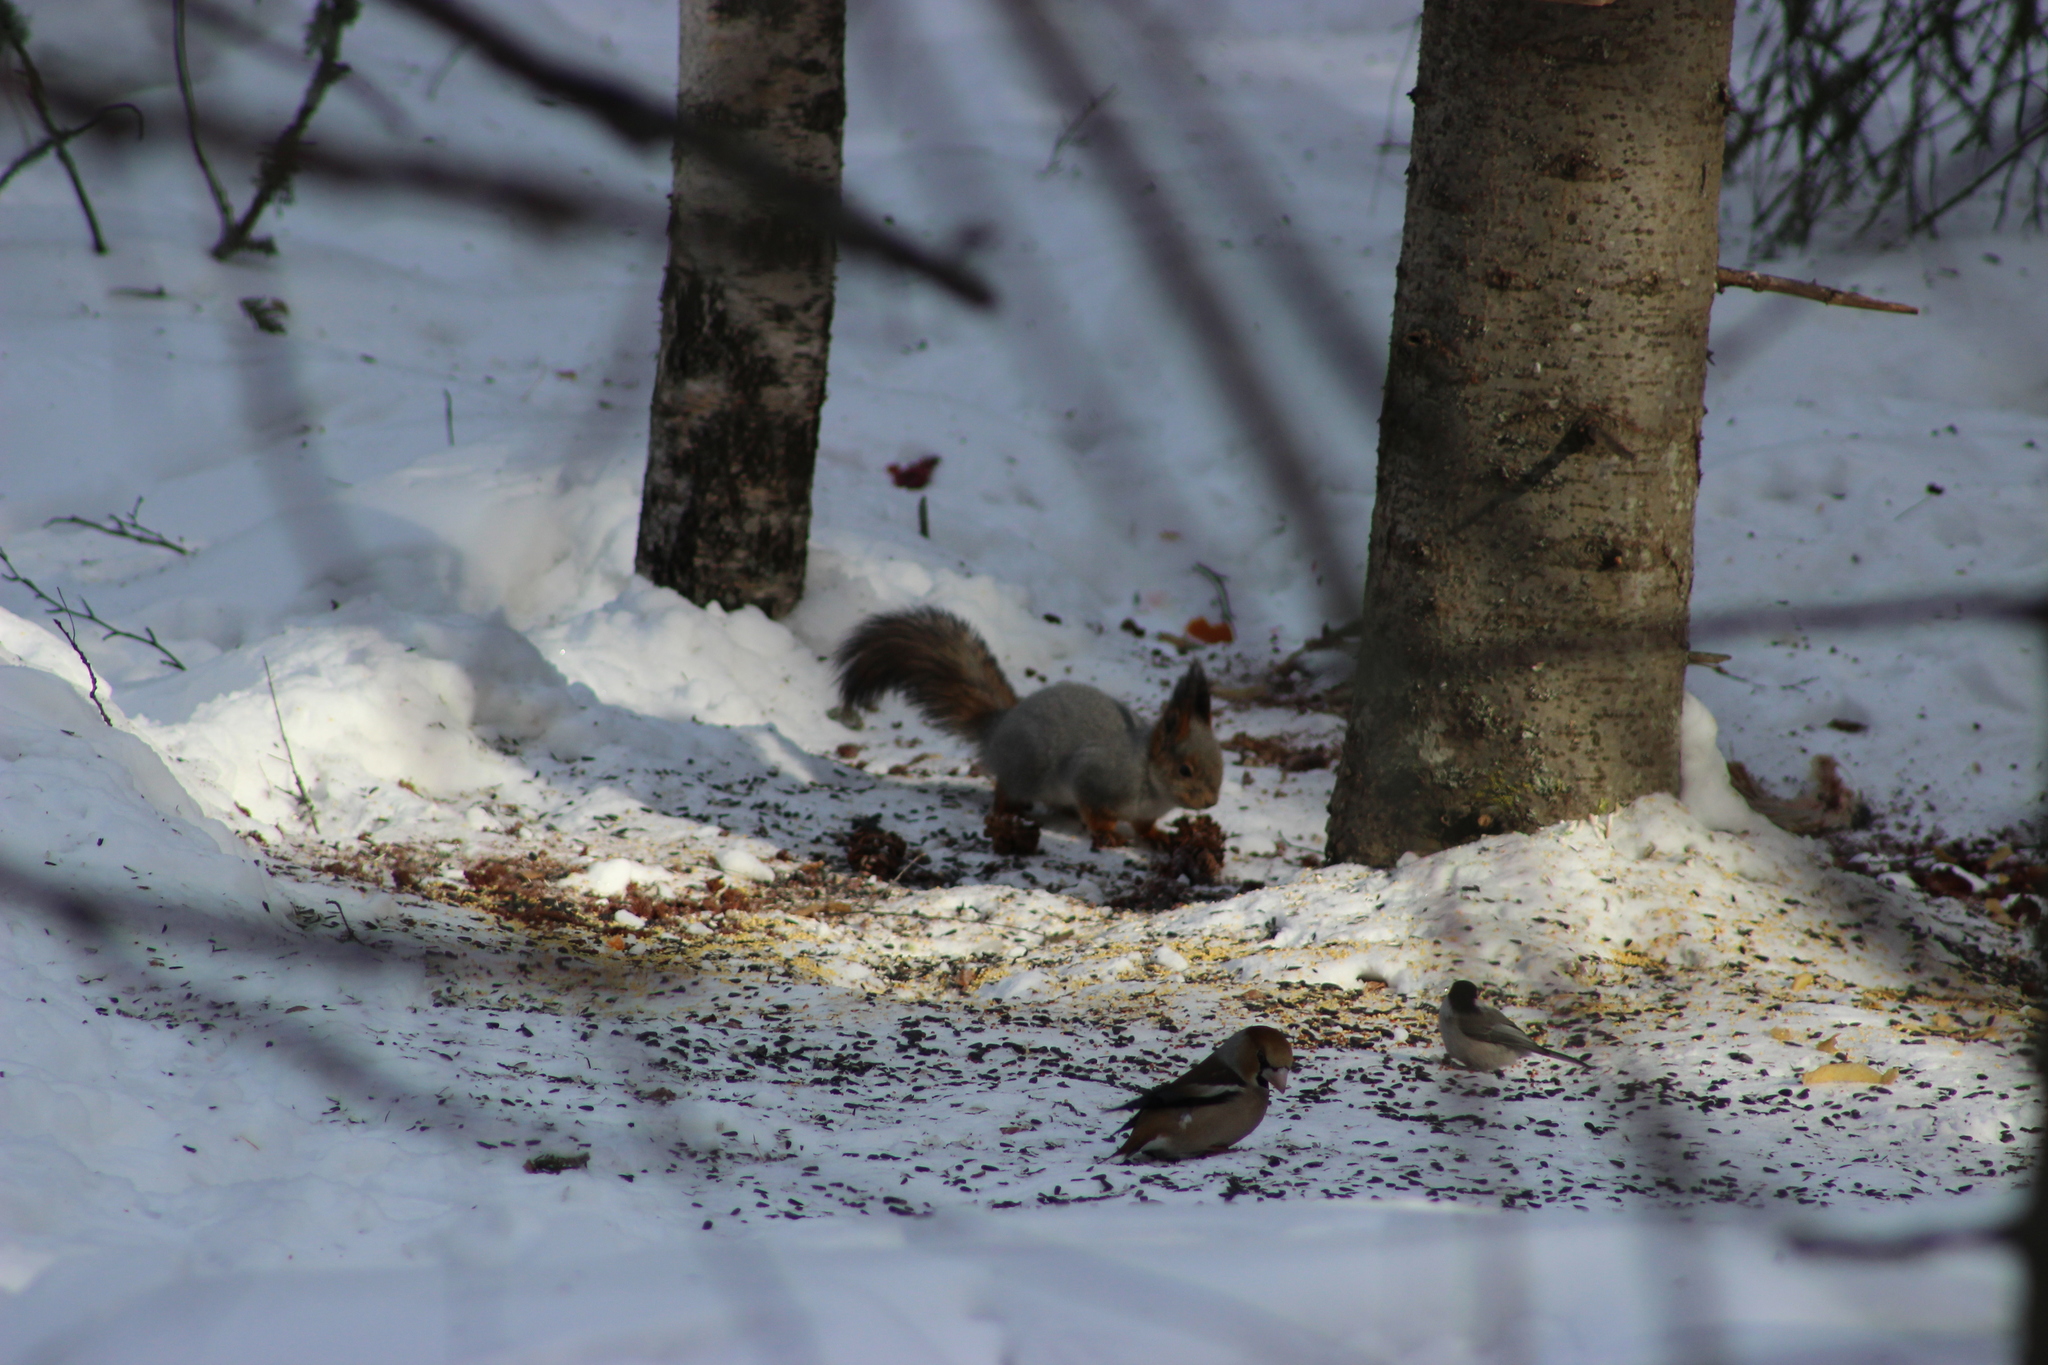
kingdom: Animalia
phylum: Chordata
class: Aves
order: Passeriformes
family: Fringillidae
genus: Coccothraustes
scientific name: Coccothraustes coccothraustes
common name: Hawfinch
